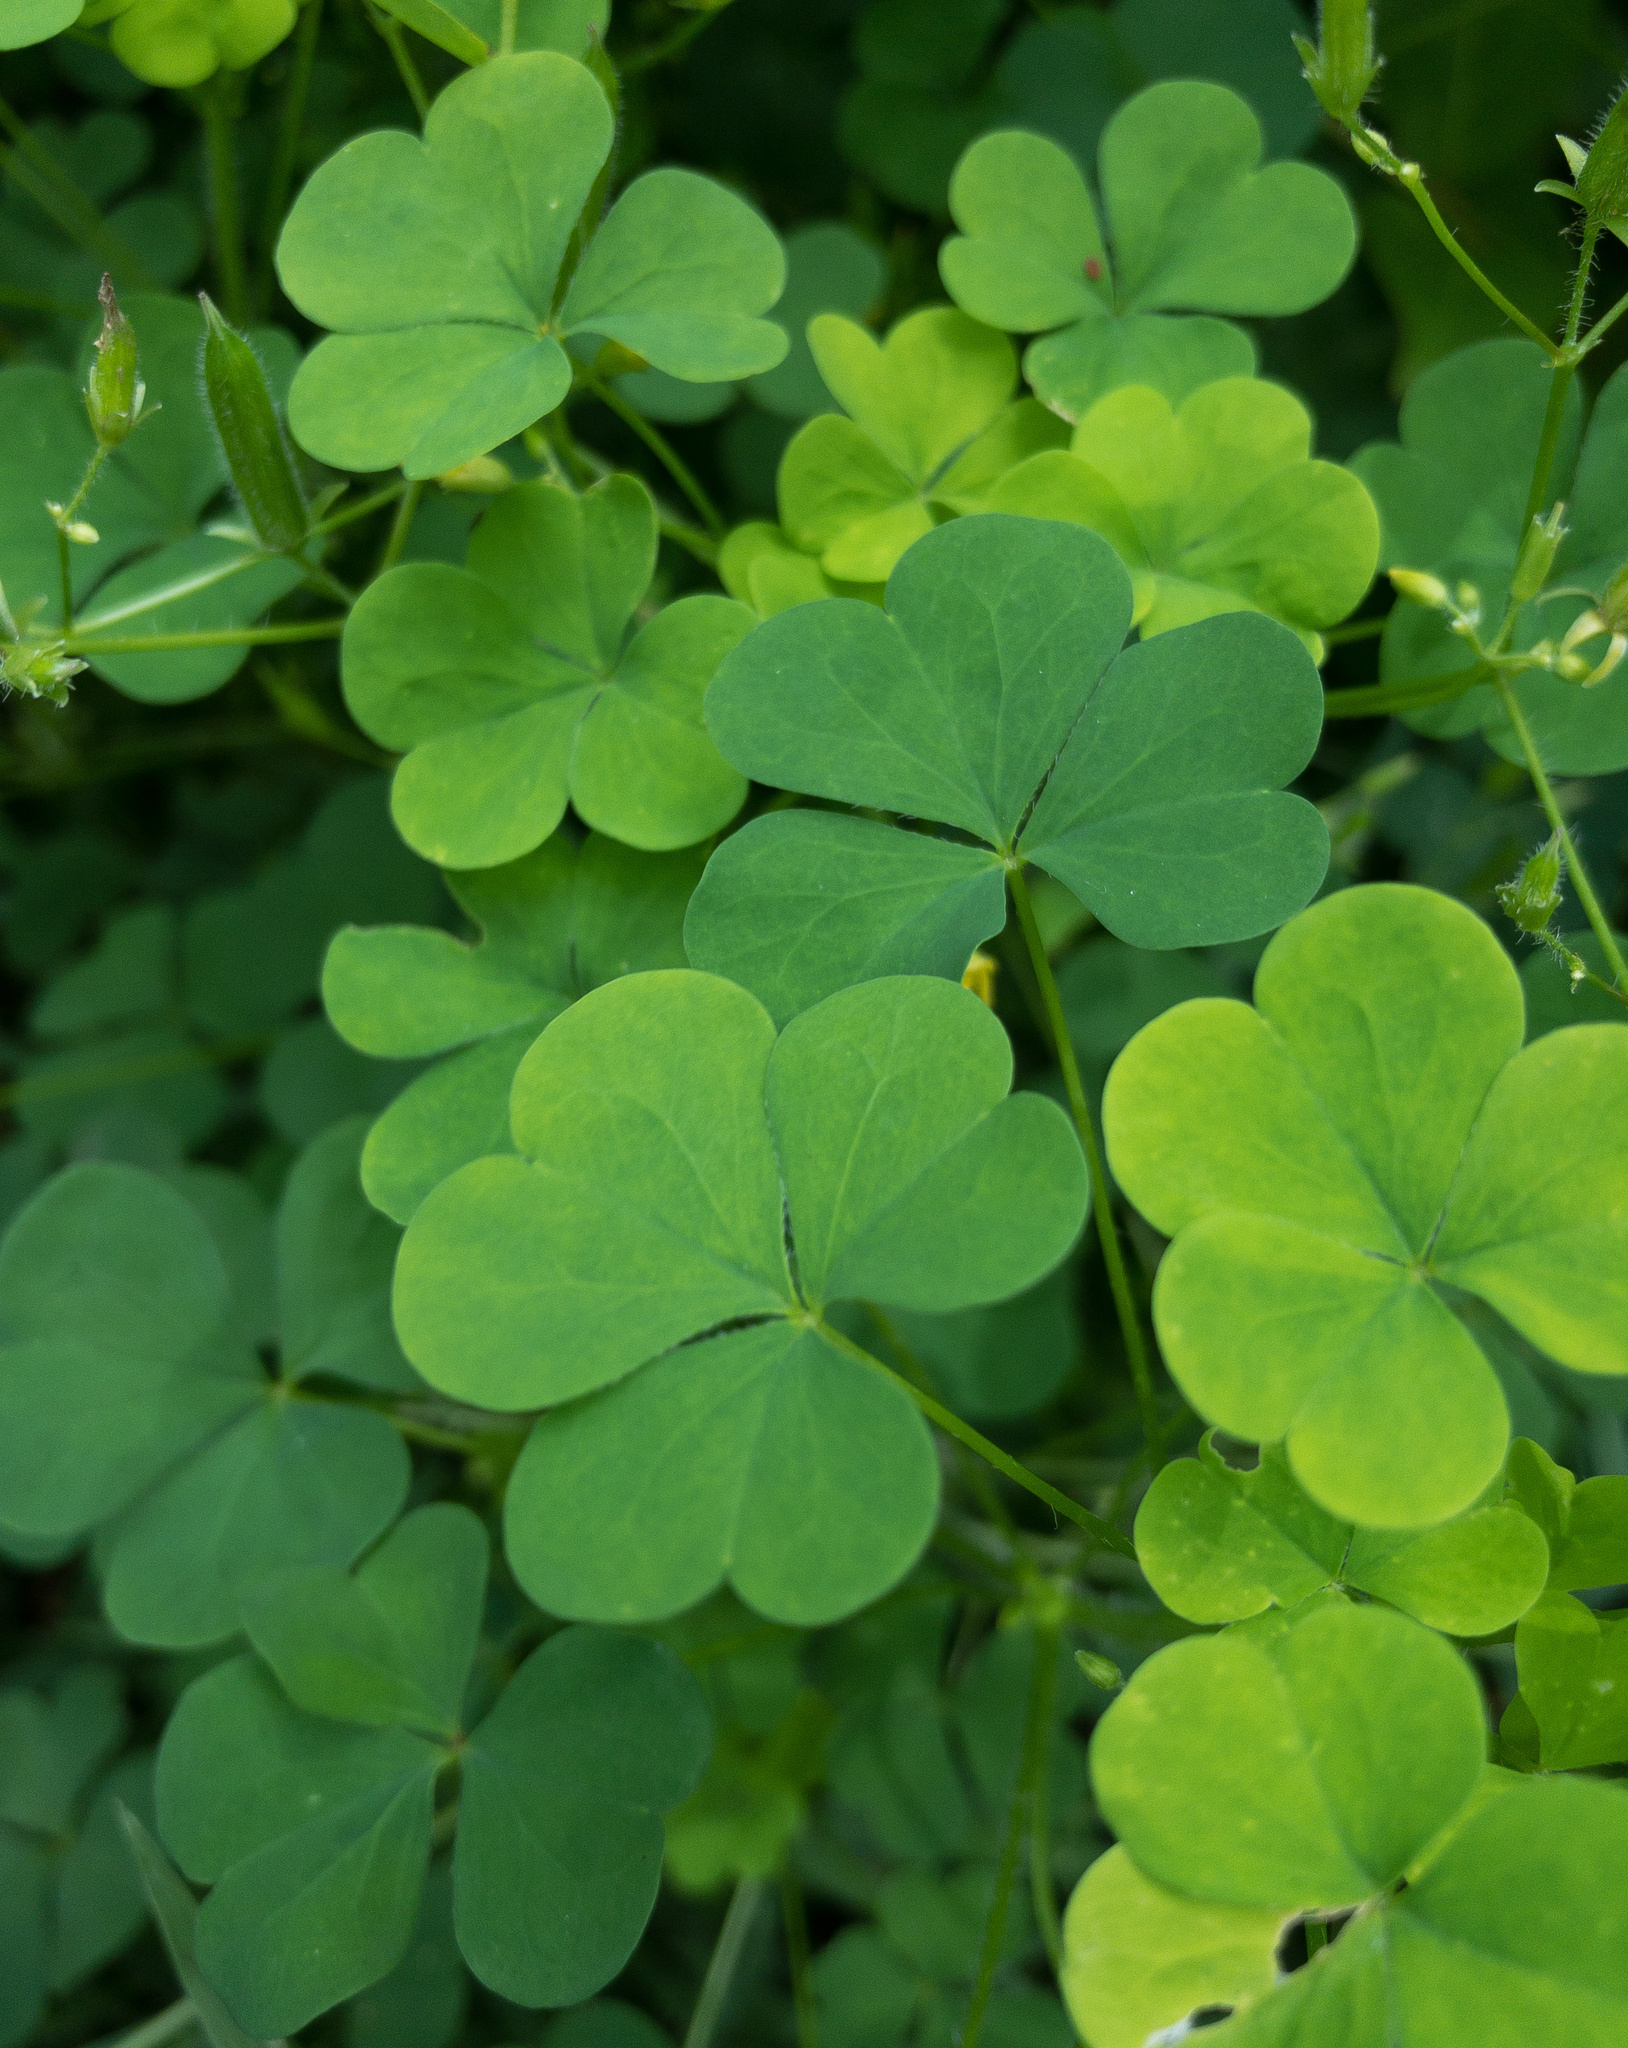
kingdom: Plantae
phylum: Tracheophyta
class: Magnoliopsida
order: Oxalidales
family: Oxalidaceae
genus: Oxalis
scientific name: Oxalis stricta
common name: Upright yellow-sorrel
